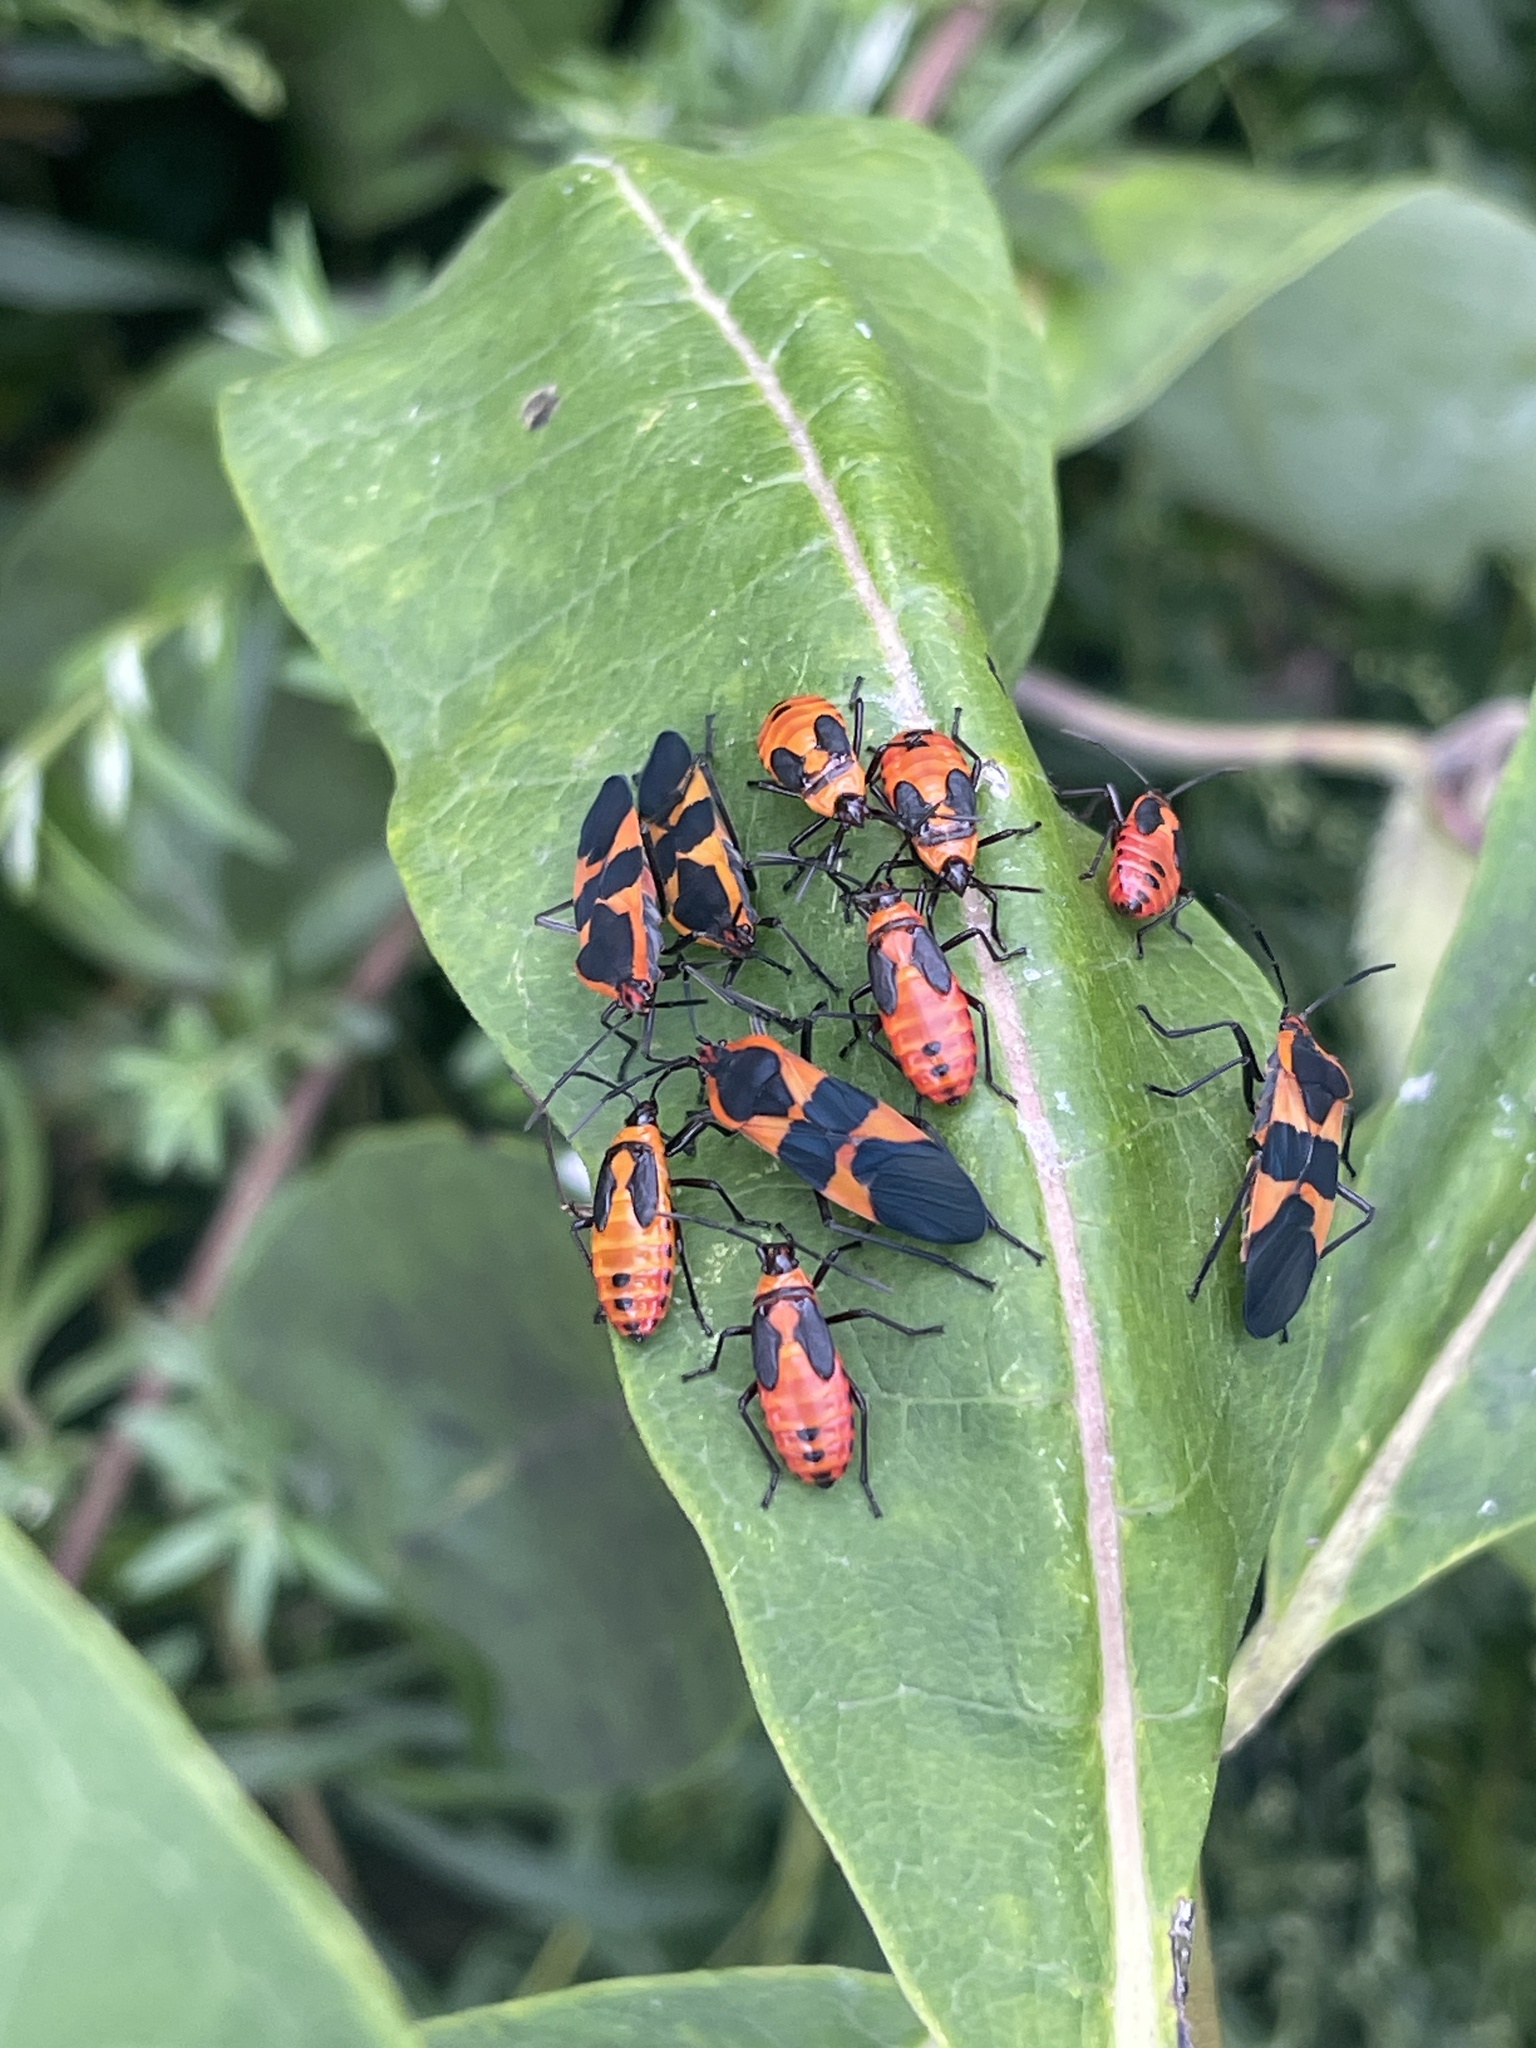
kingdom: Animalia
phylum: Arthropoda
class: Insecta
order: Hemiptera
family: Lygaeidae
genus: Oncopeltus
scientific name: Oncopeltus fasciatus
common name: Large milkweed bug
